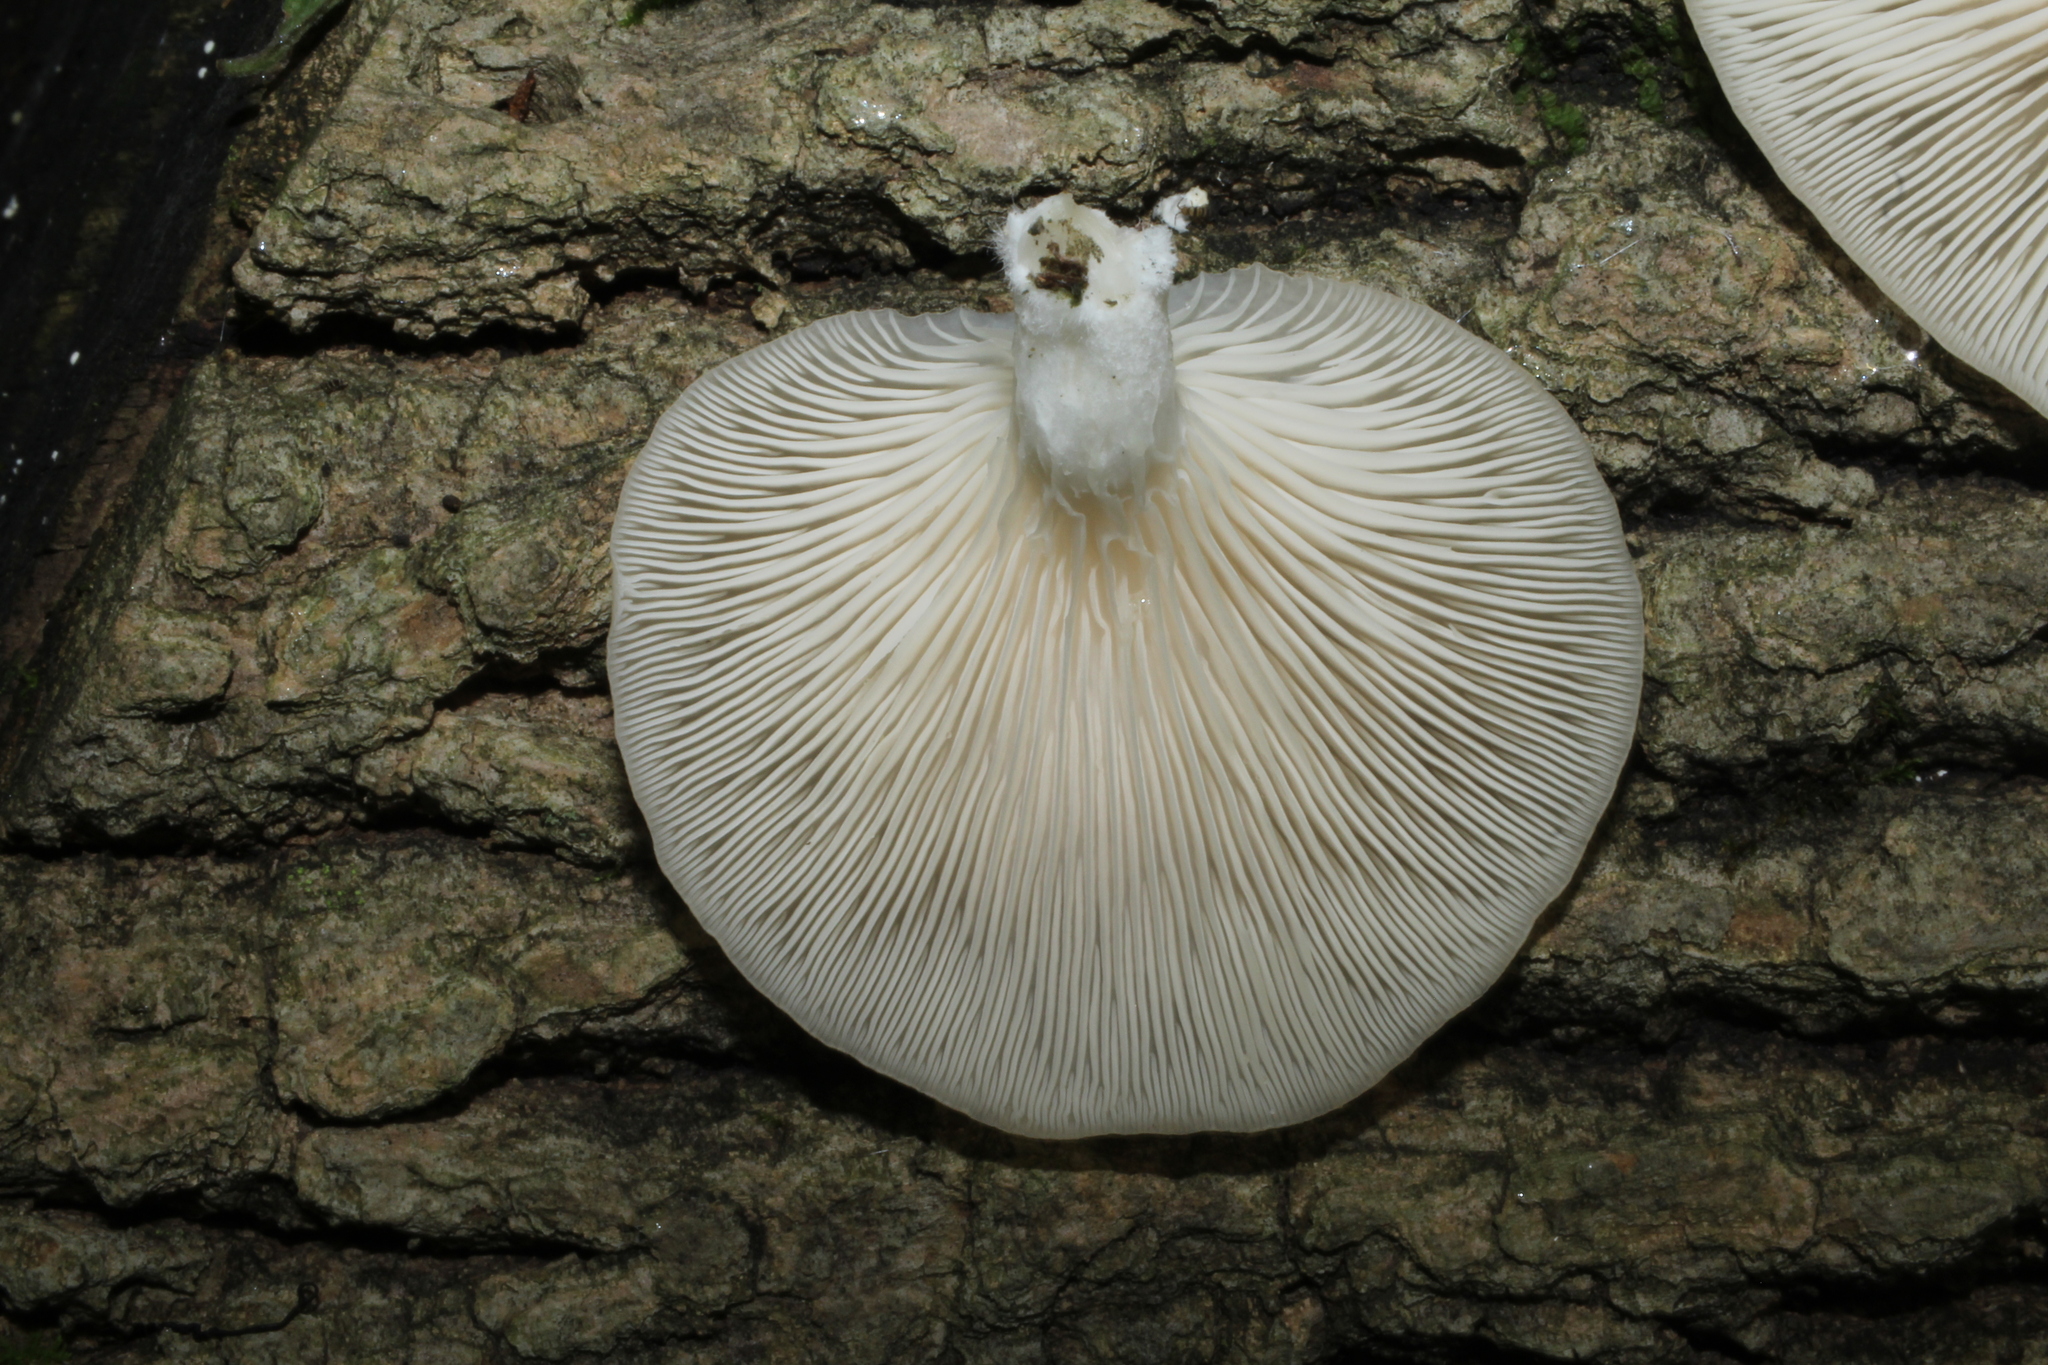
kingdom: Fungi
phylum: Basidiomycota
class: Agaricomycetes
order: Agaricales
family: Pleurotaceae
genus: Pleurotus
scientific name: Pleurotus pulmonarius
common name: Pale oyster
